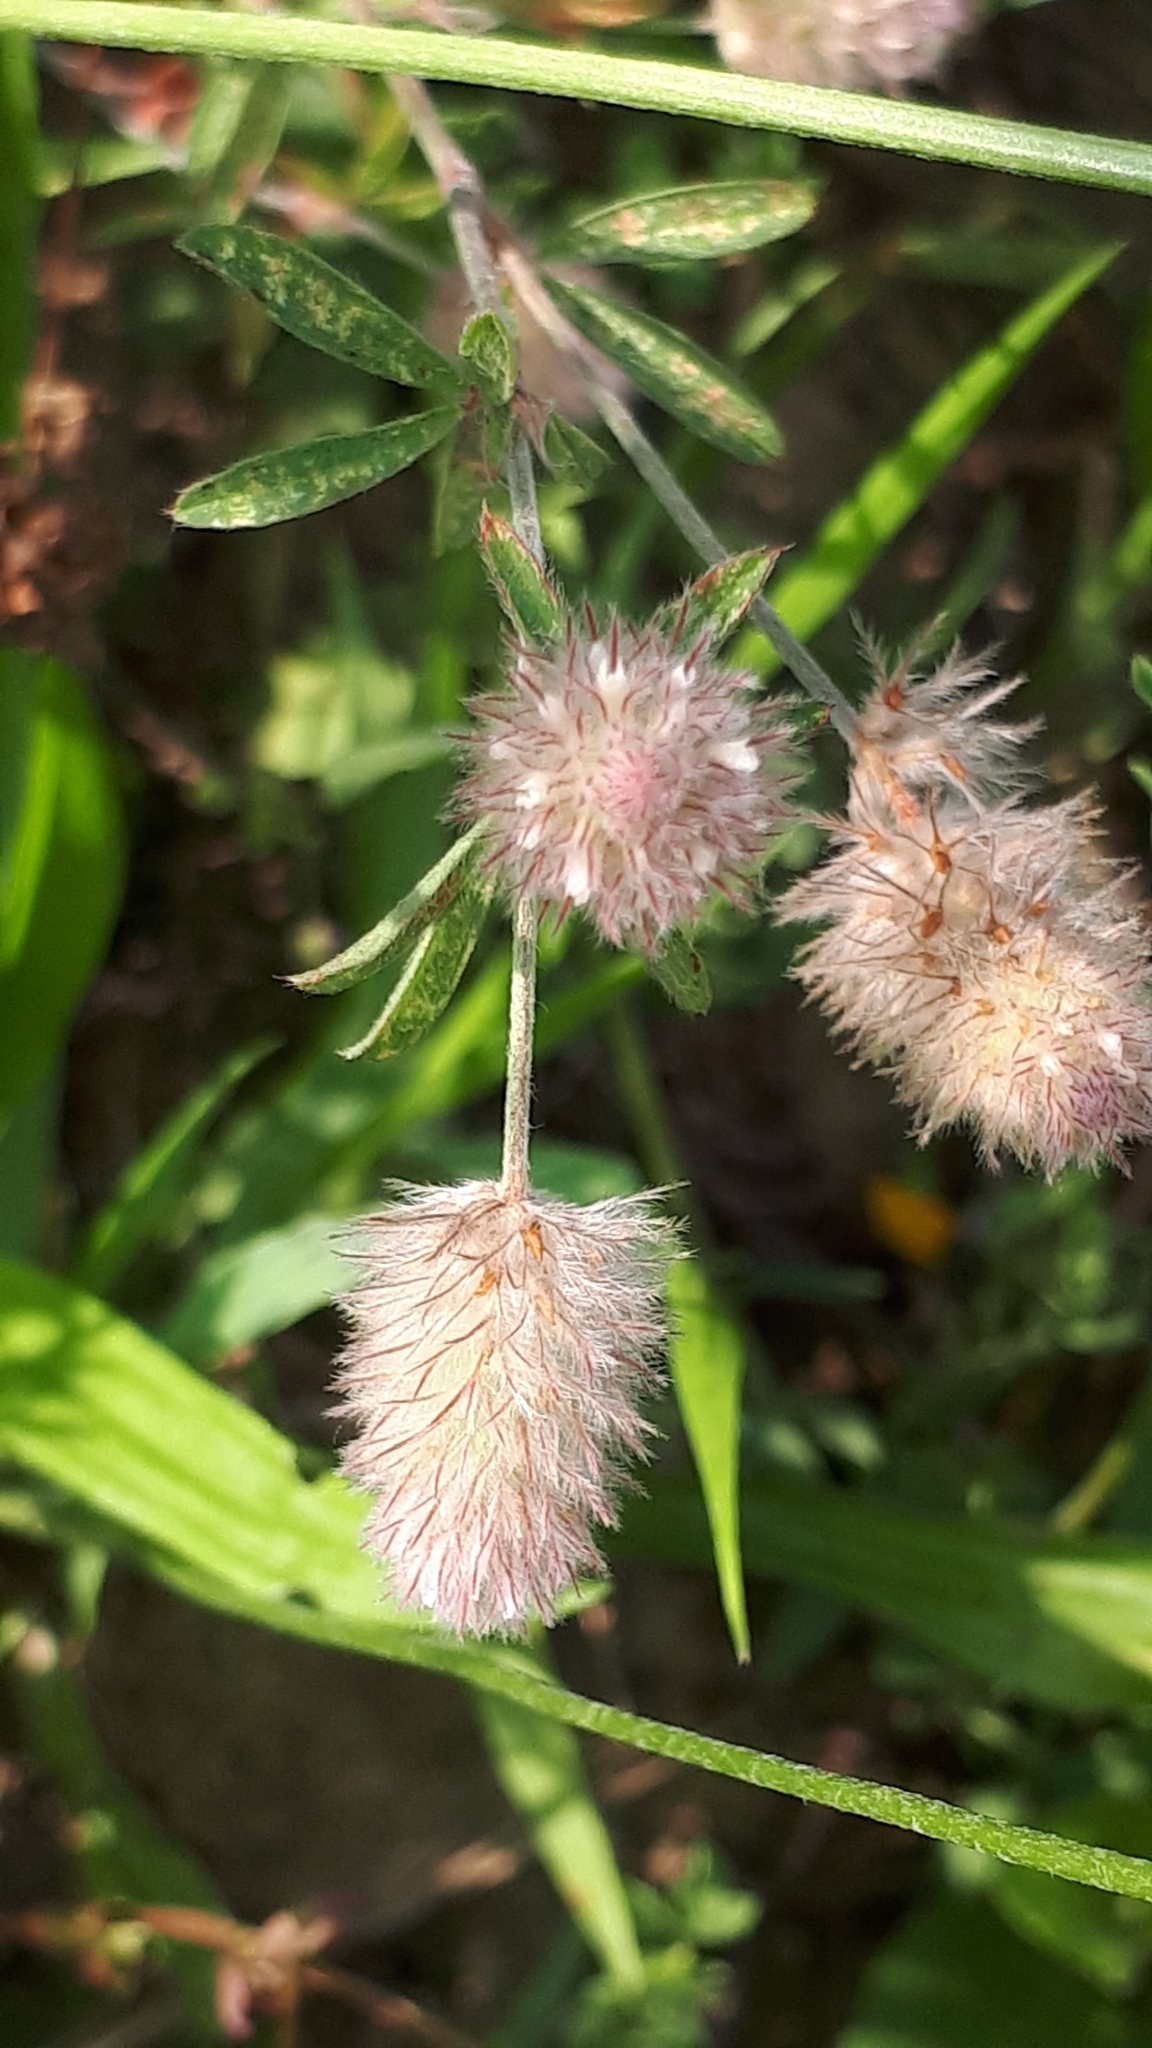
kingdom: Plantae
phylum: Tracheophyta
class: Magnoliopsida
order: Fabales
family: Fabaceae
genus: Trifolium
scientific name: Trifolium arvense
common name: Hare's-foot clover
